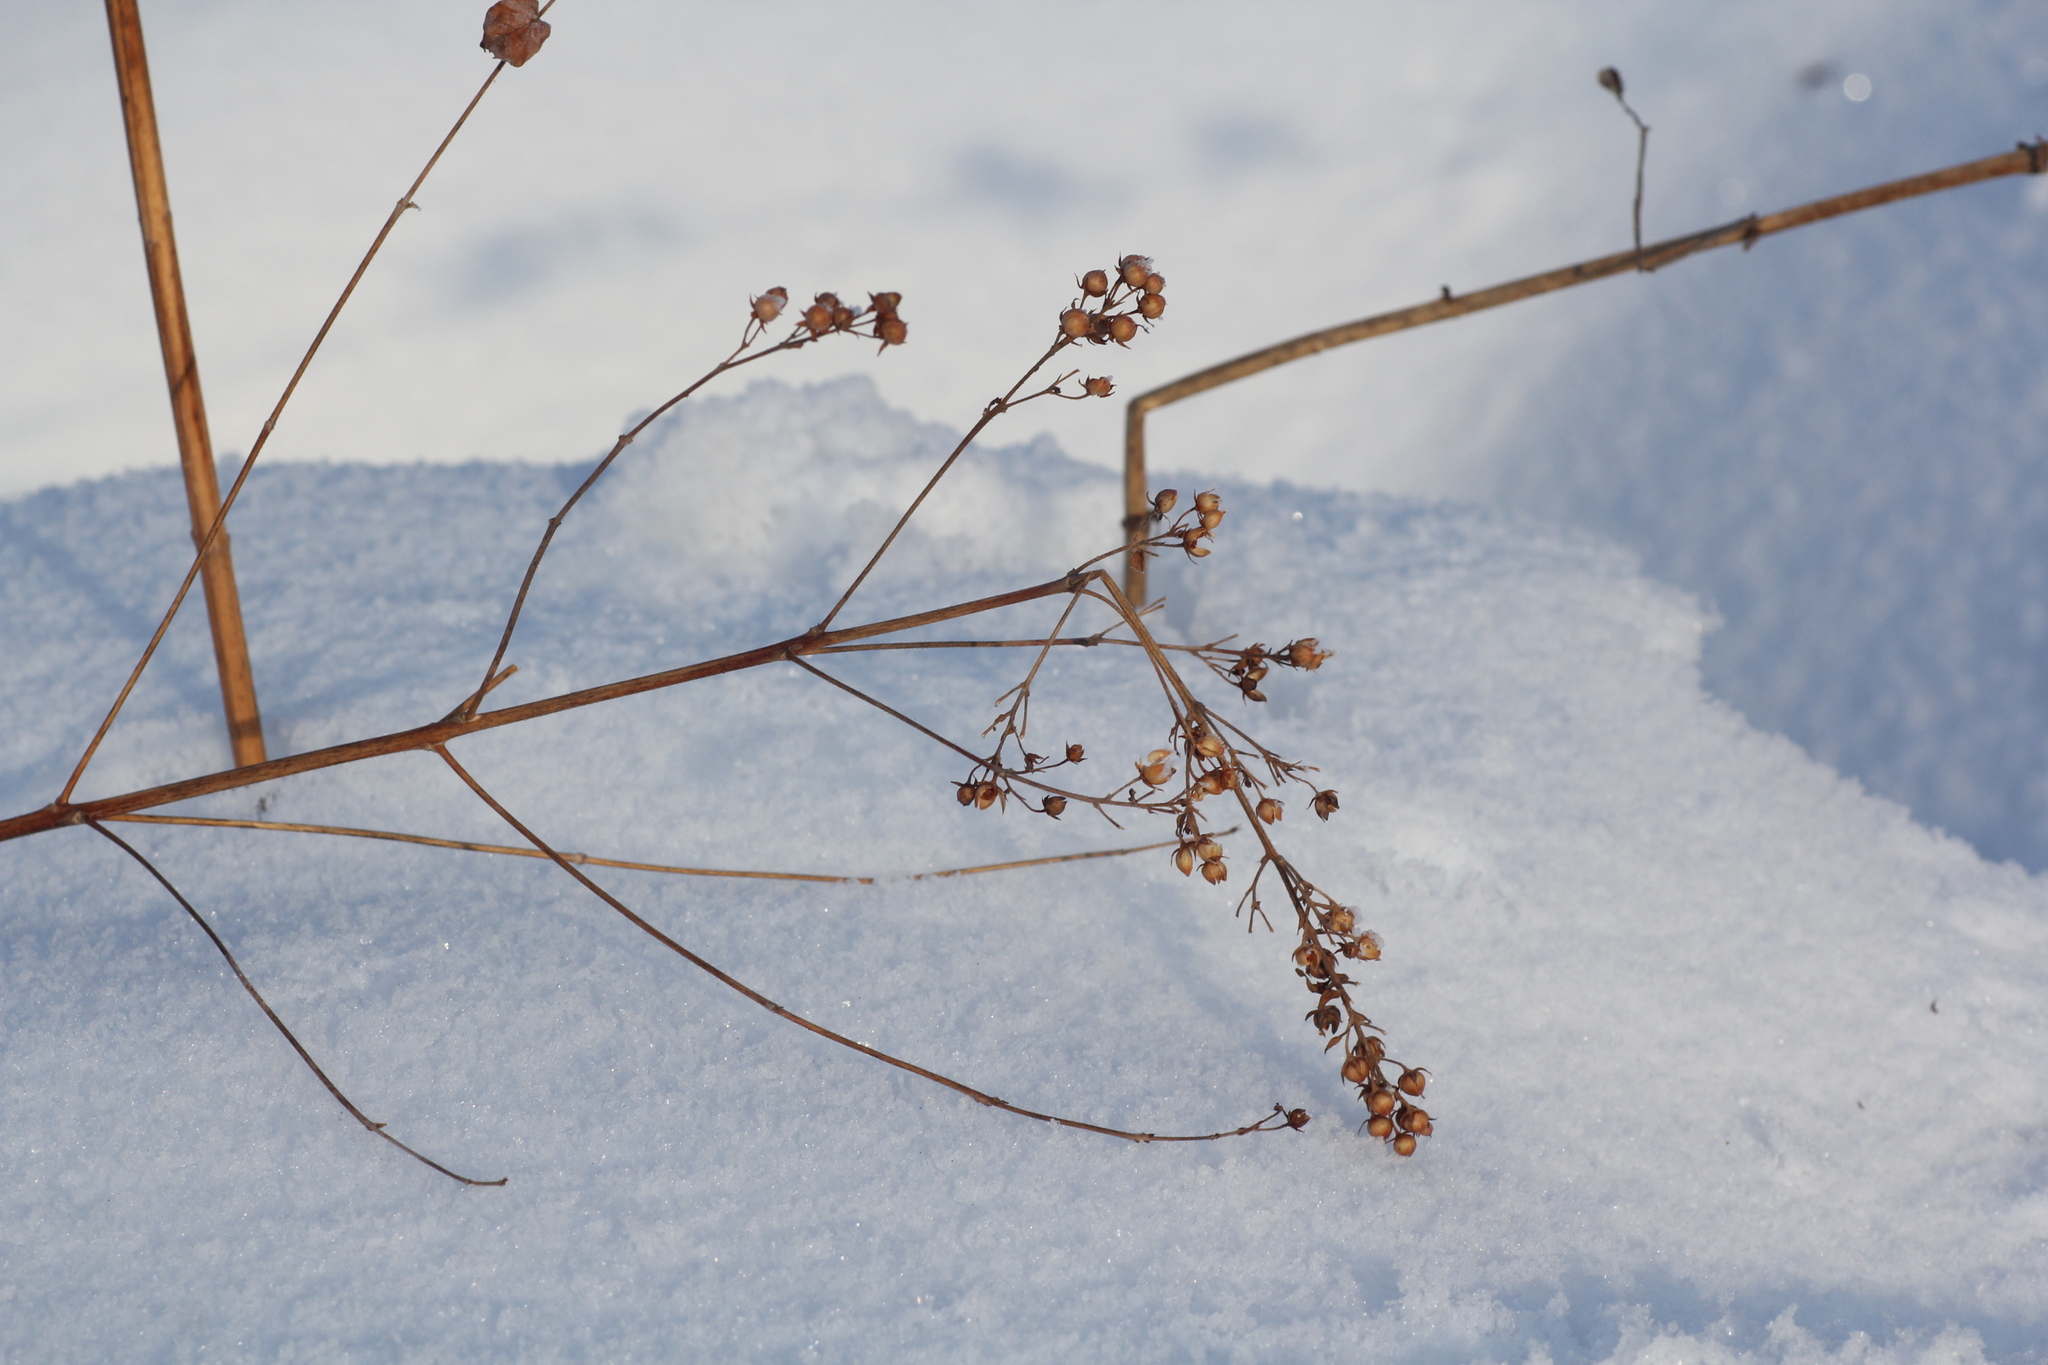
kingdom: Plantae
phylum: Tracheophyta
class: Magnoliopsida
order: Ericales
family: Primulaceae
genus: Lysimachia
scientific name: Lysimachia vulgaris
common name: Yellow loosestrife
